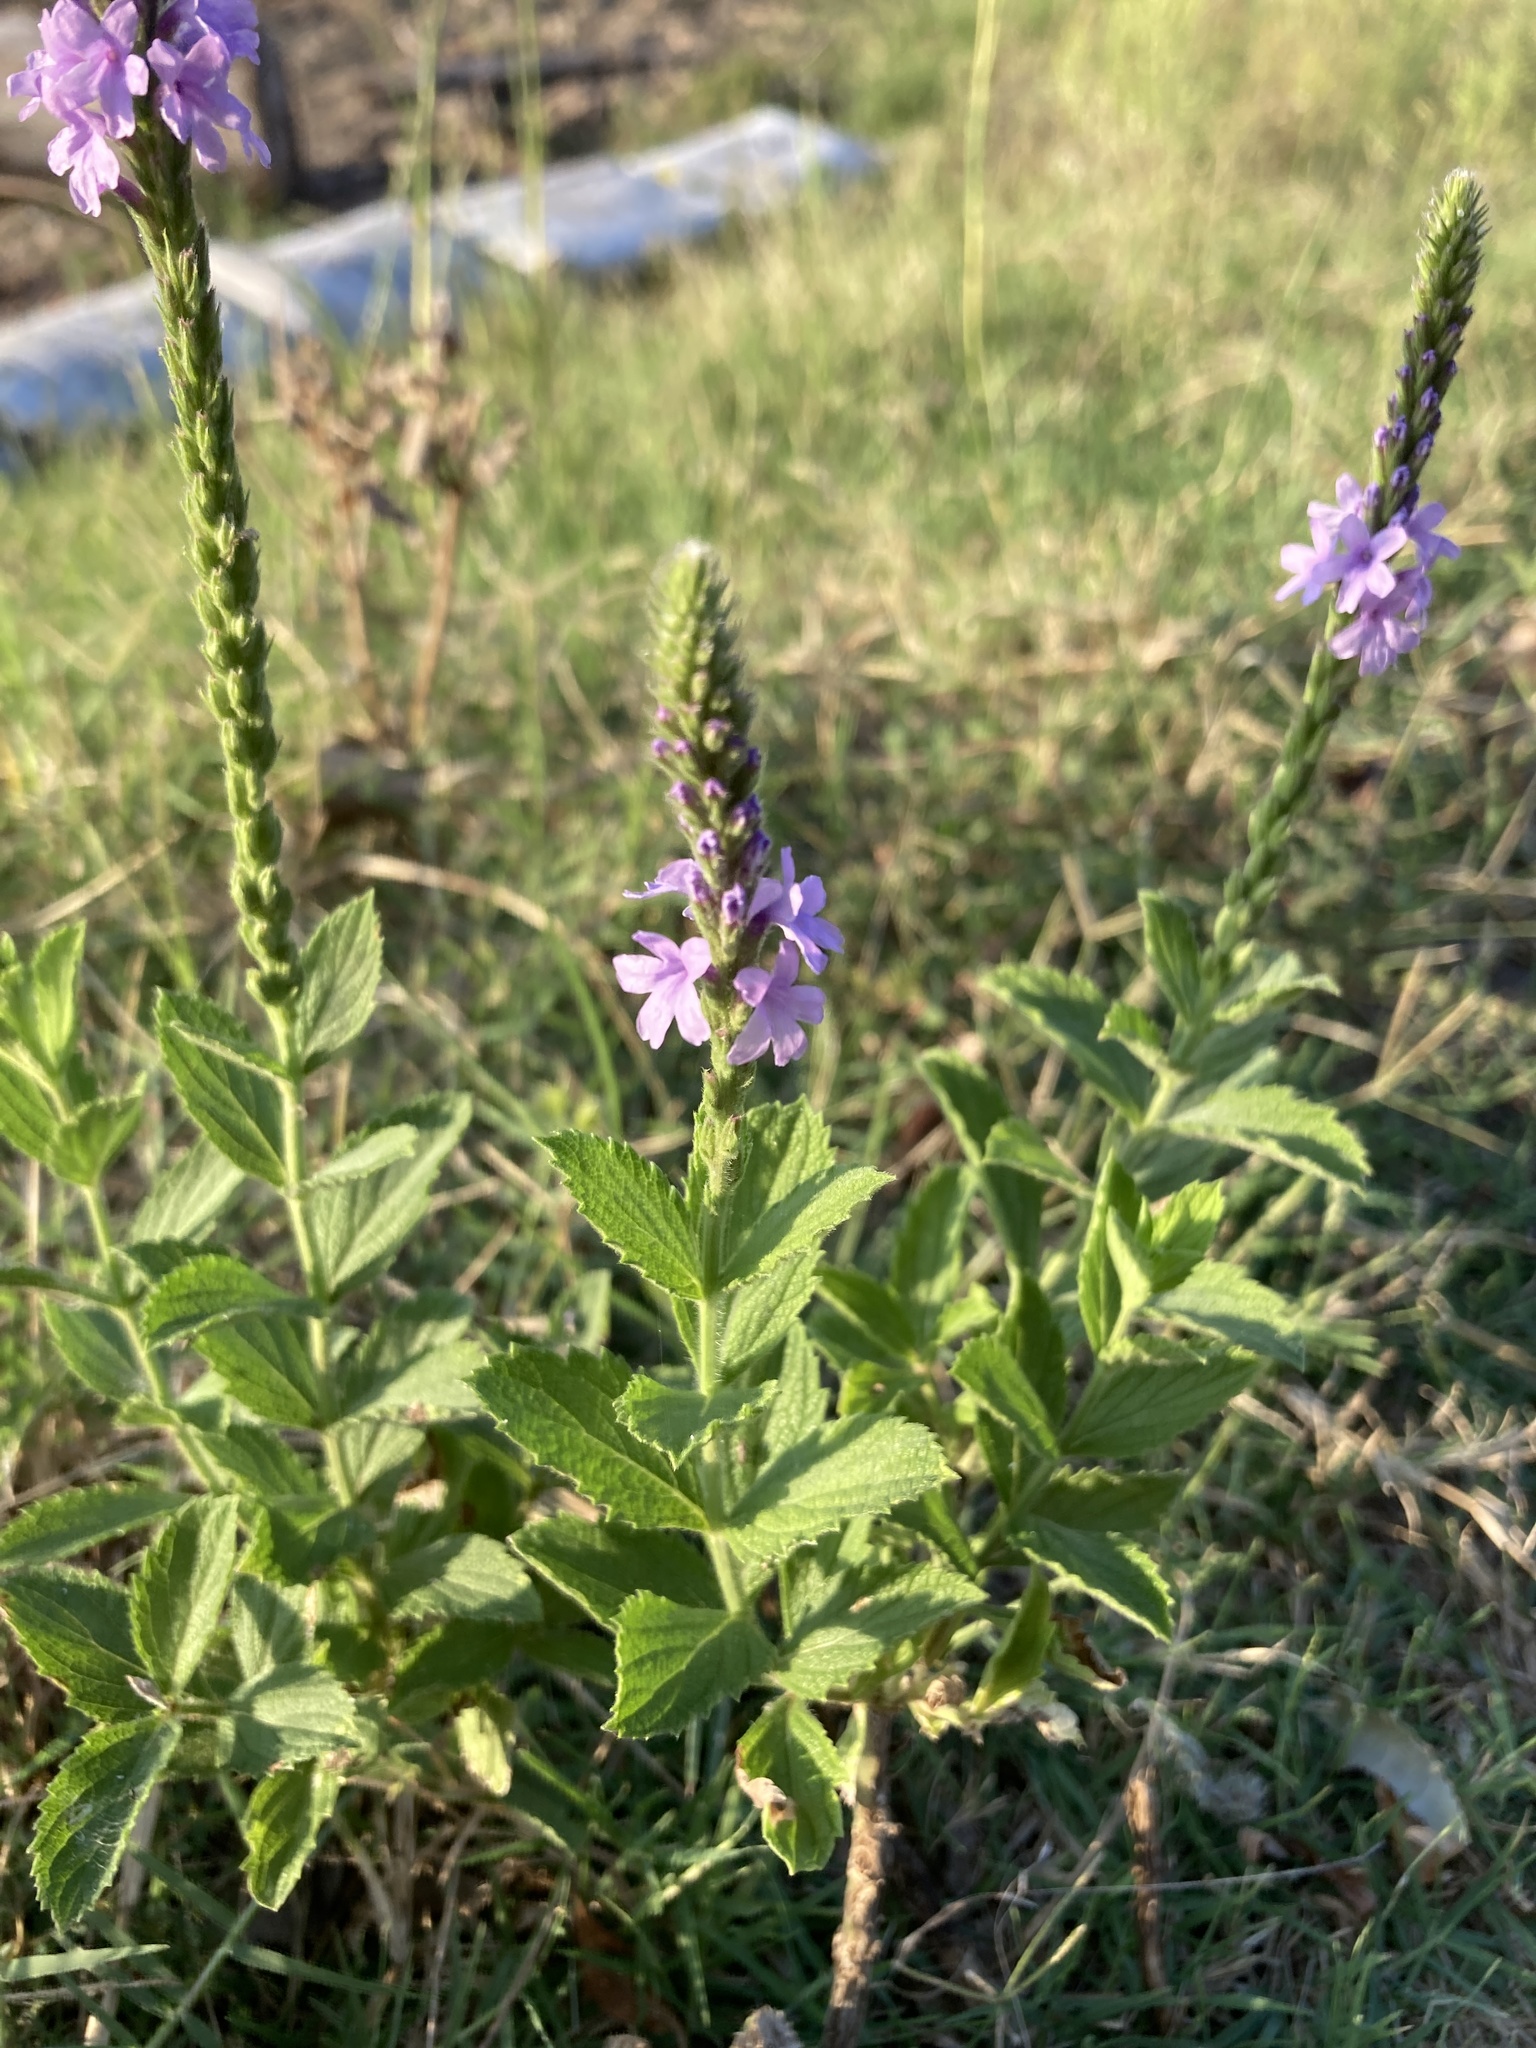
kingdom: Plantae
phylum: Tracheophyta
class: Magnoliopsida
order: Lamiales
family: Verbenaceae
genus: Verbena
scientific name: Verbena stricta
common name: Hoary vervain
